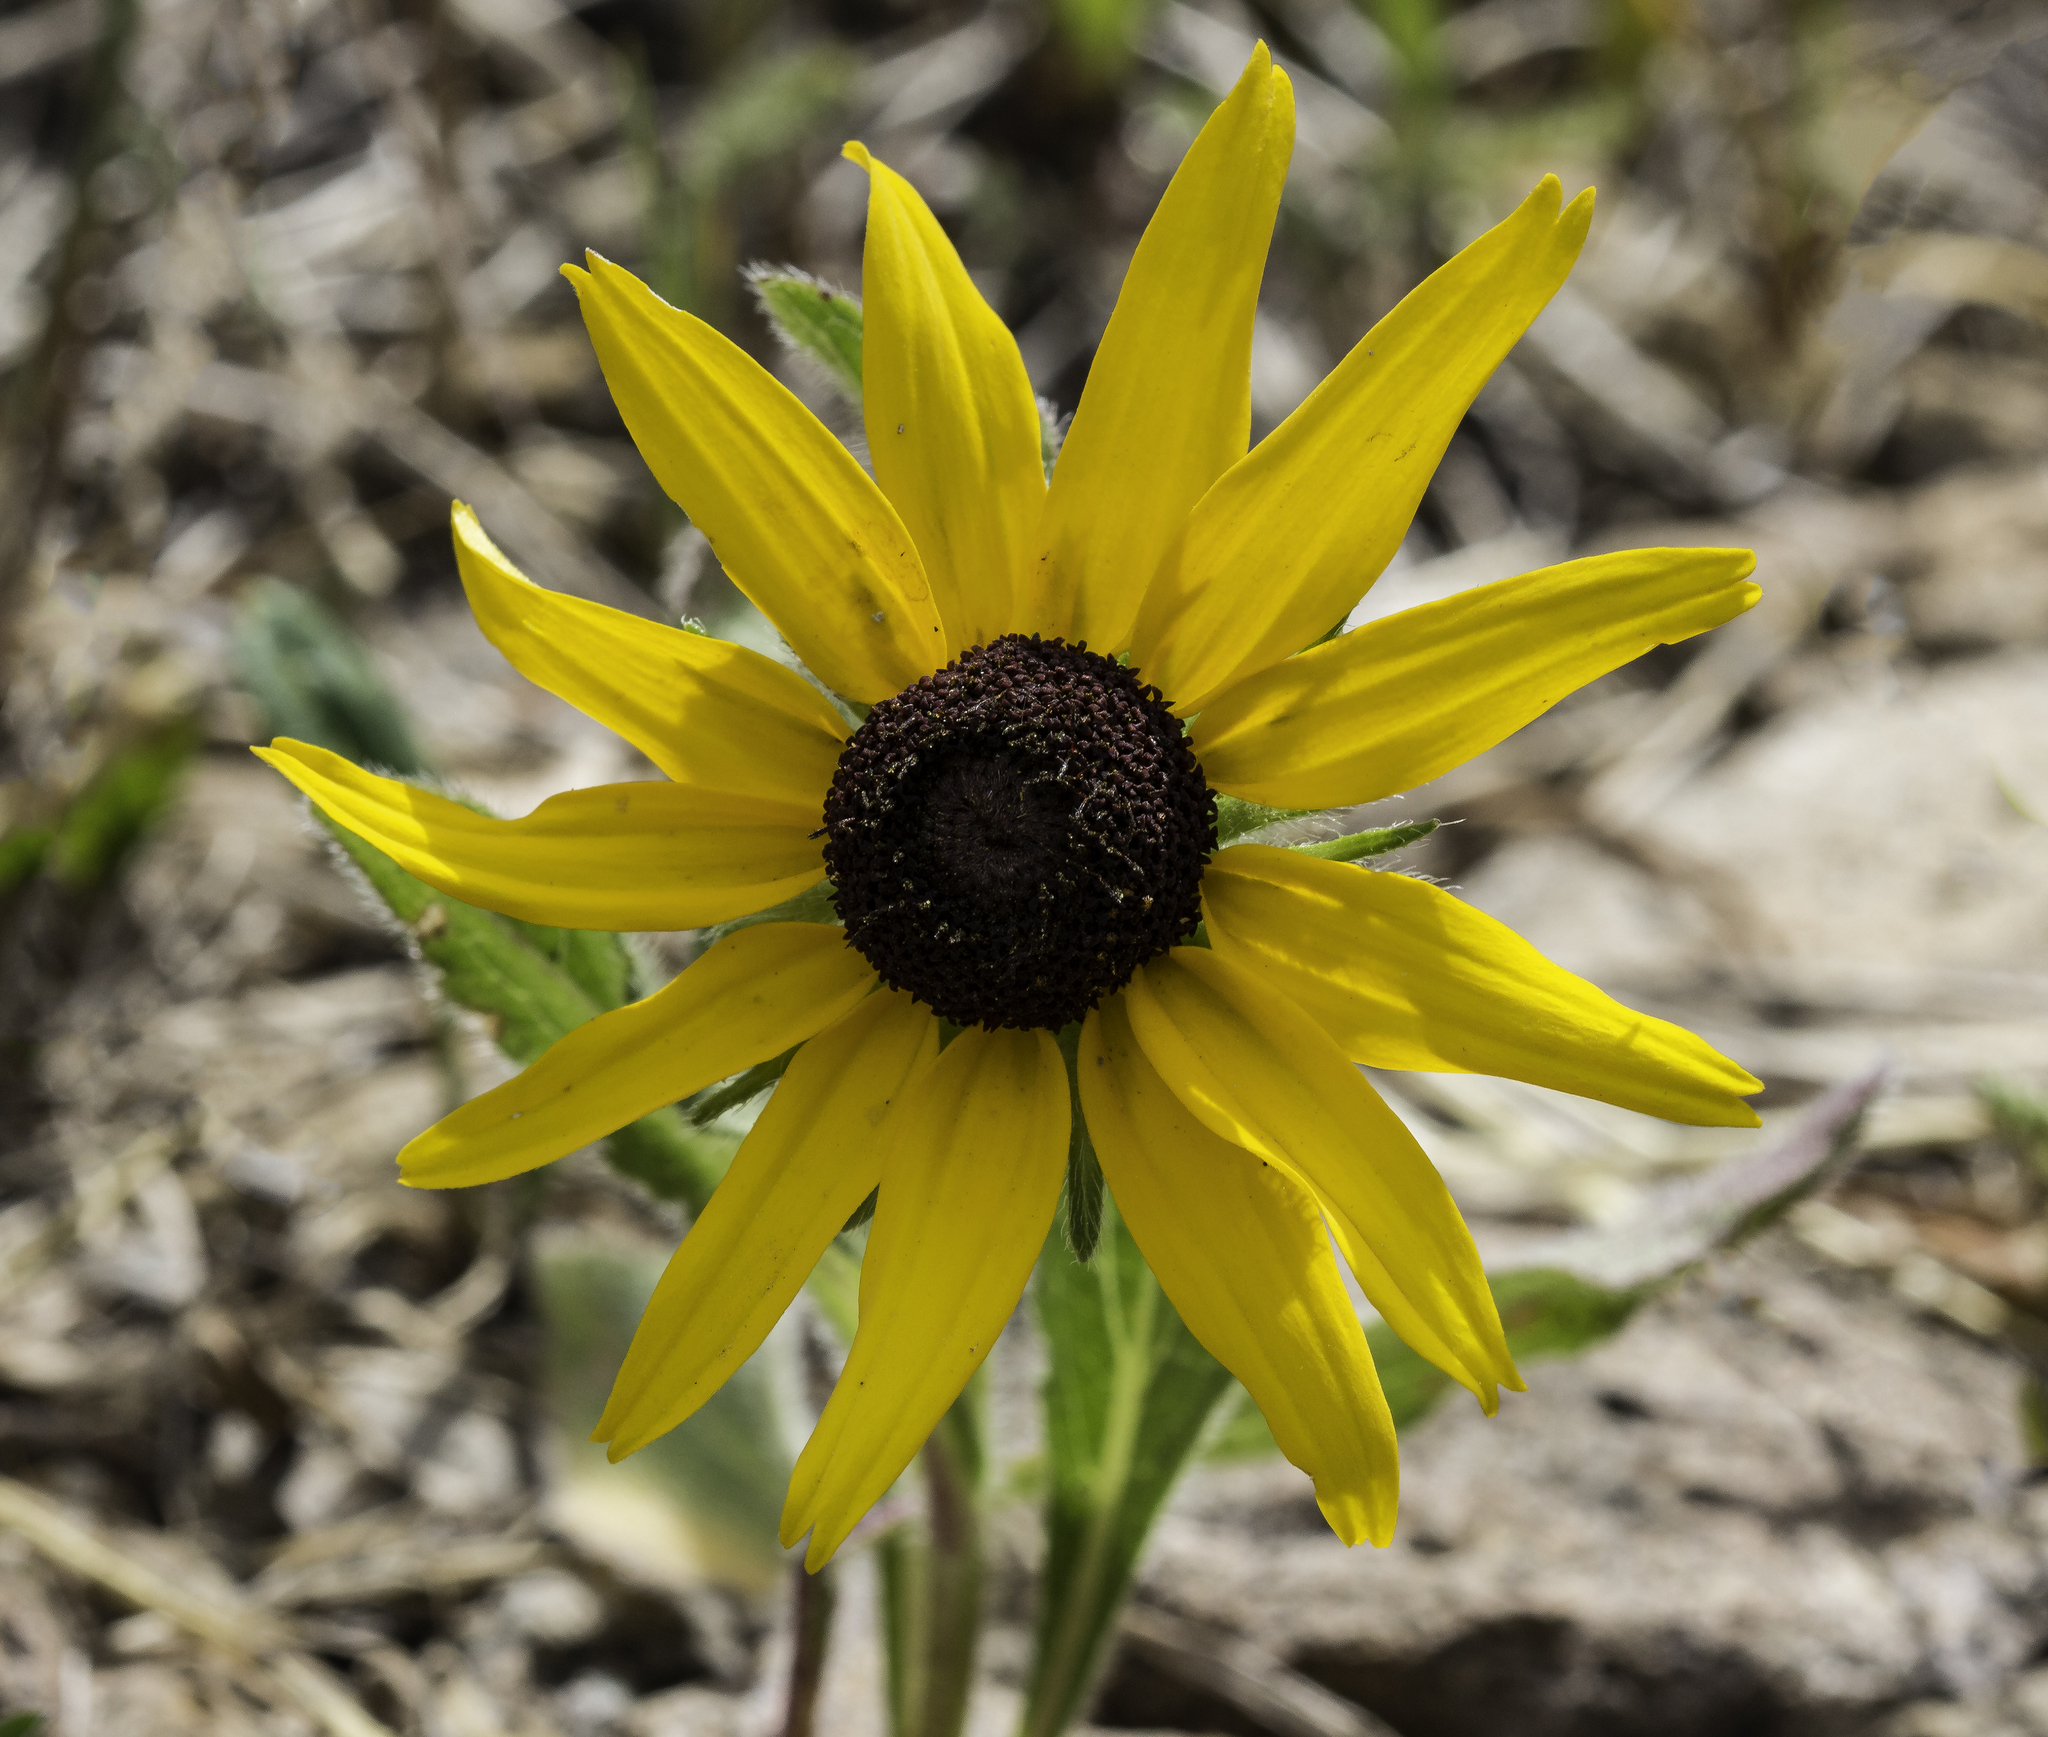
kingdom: Plantae
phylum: Tracheophyta
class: Magnoliopsida
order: Asterales
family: Asteraceae
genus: Rudbeckia
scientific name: Rudbeckia hirta
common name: Black-eyed-susan
